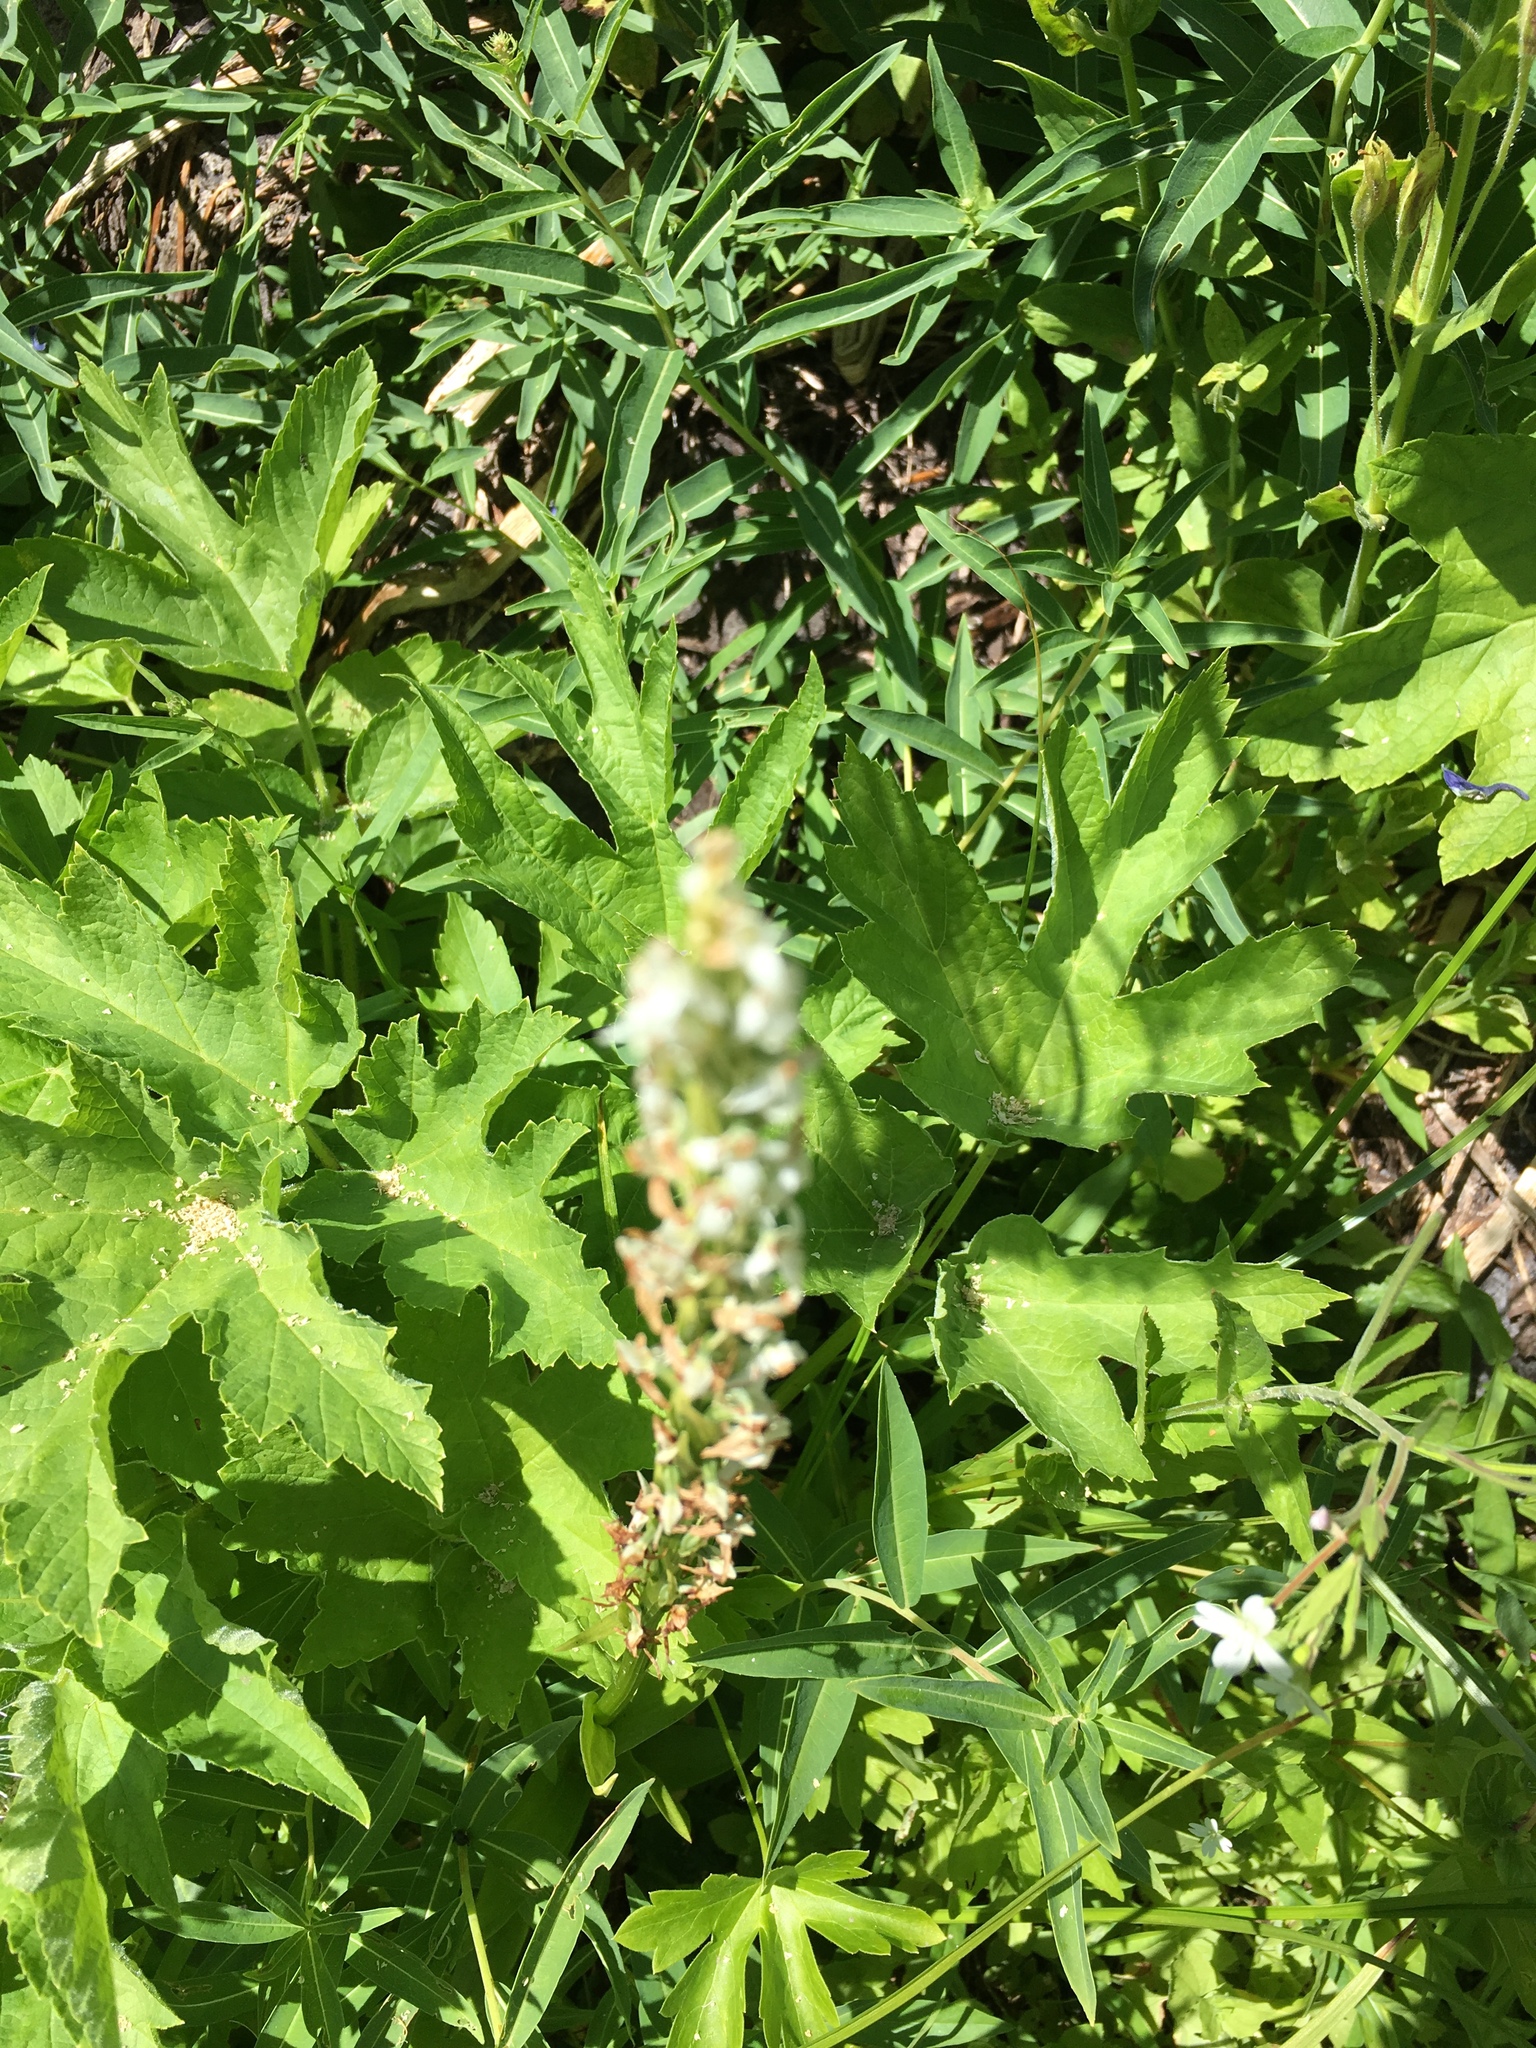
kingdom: Plantae
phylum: Tracheophyta
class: Liliopsida
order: Asparagales
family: Orchidaceae
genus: Platanthera
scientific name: Platanthera dilatata
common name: Bog candles
